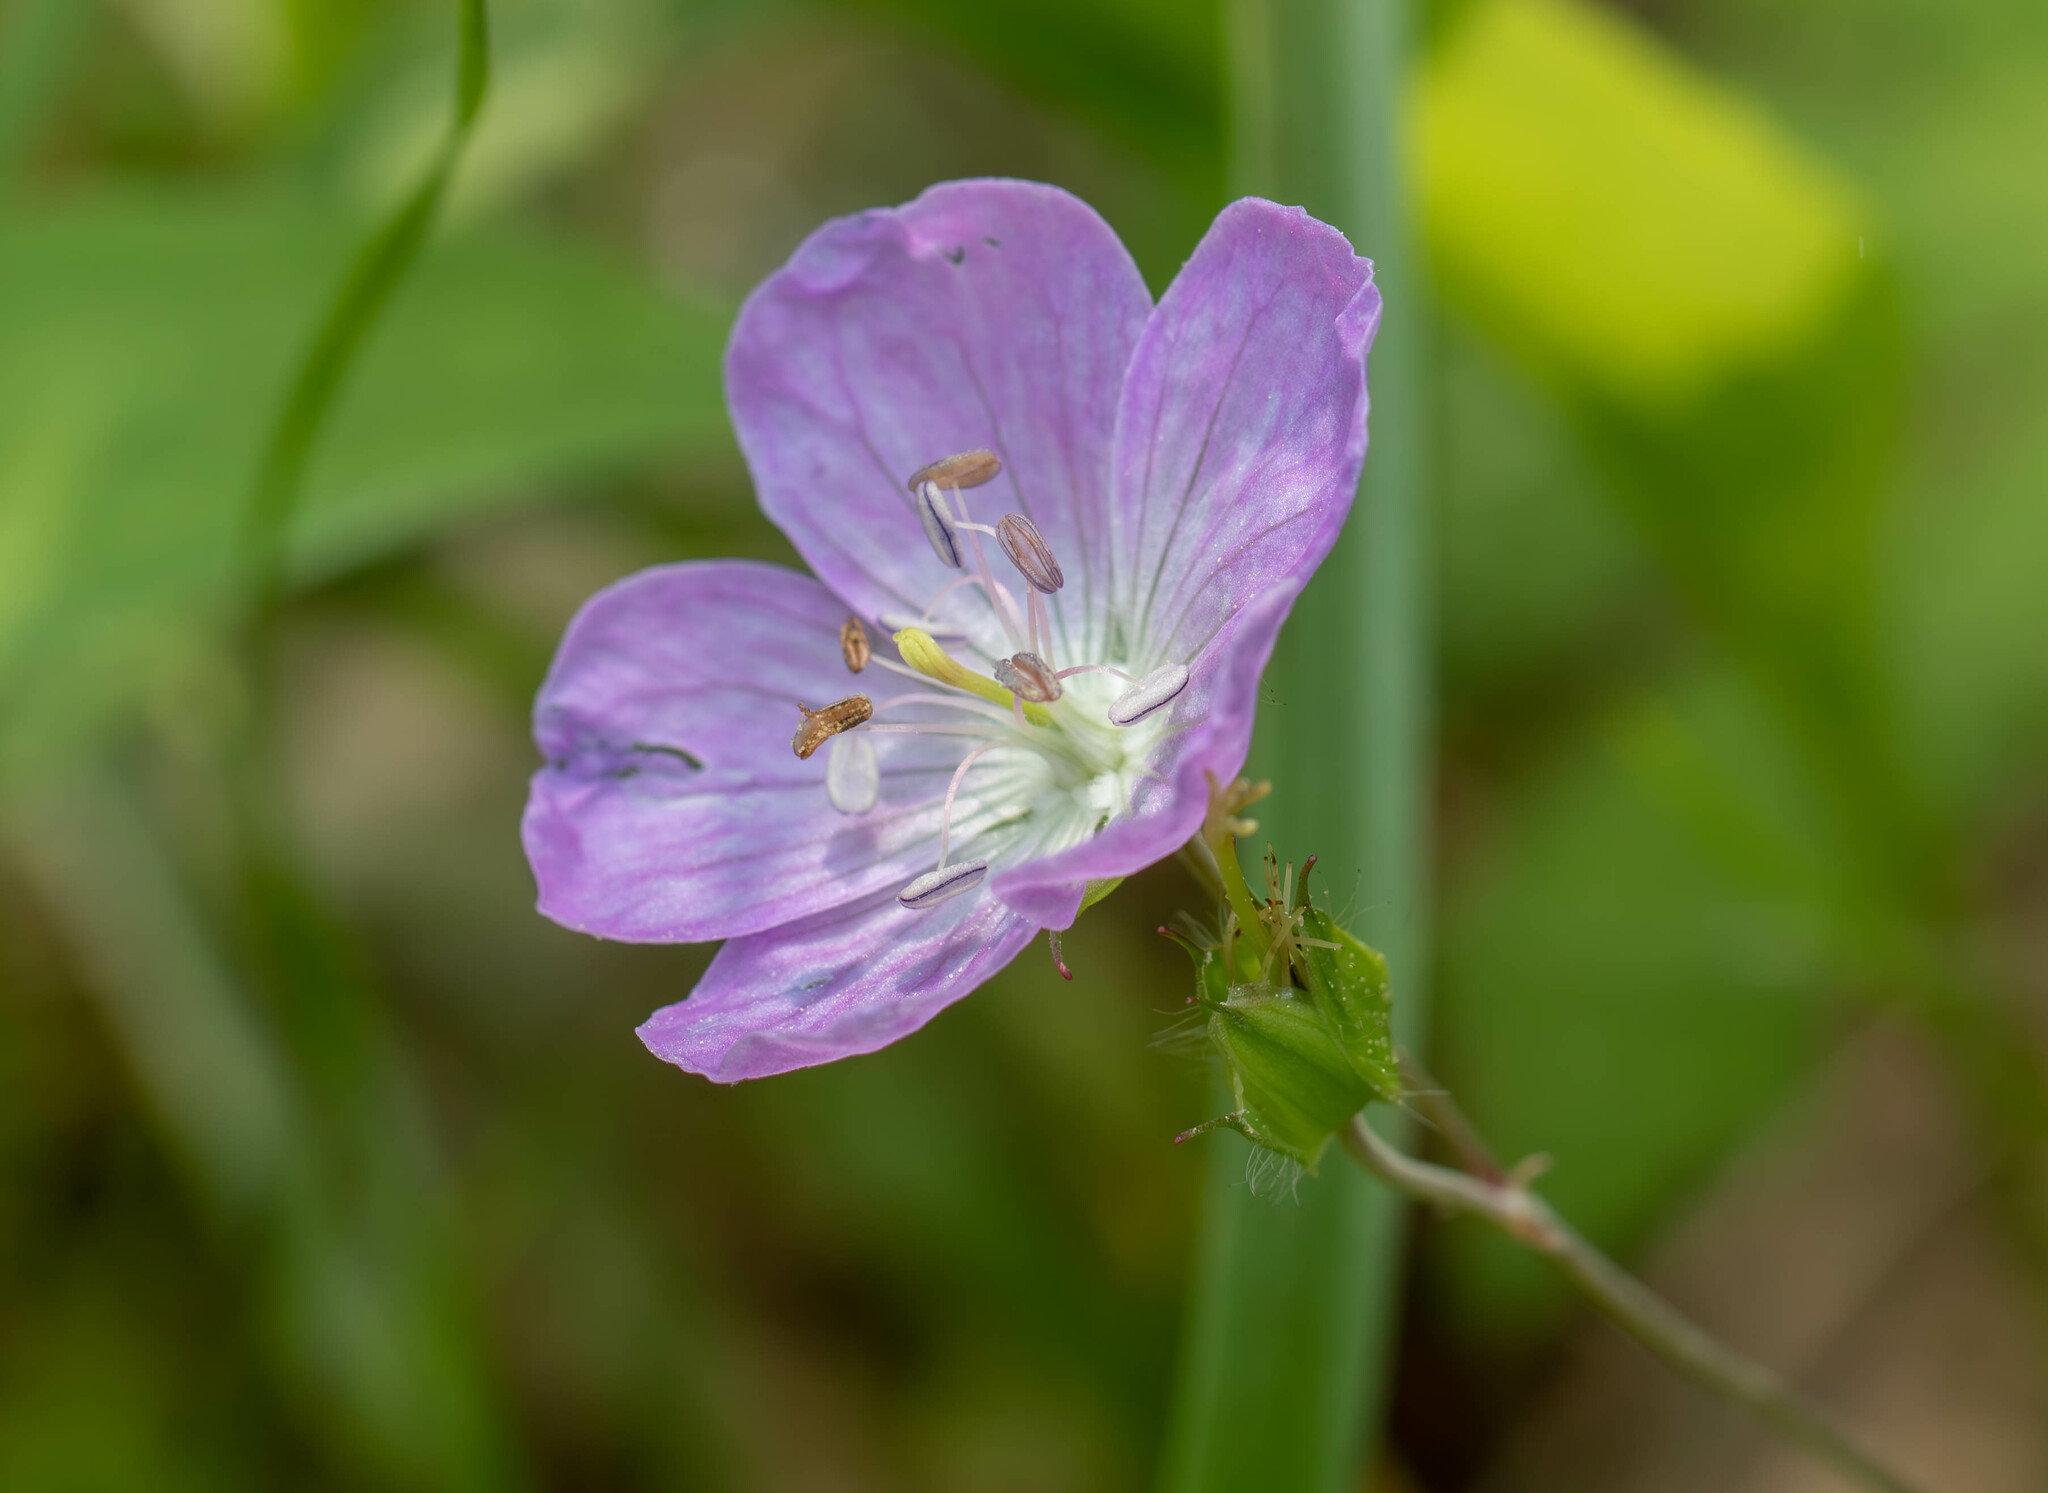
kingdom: Plantae
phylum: Tracheophyta
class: Magnoliopsida
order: Geraniales
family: Geraniaceae
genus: Geranium
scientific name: Geranium maculatum
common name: Spotted geranium
